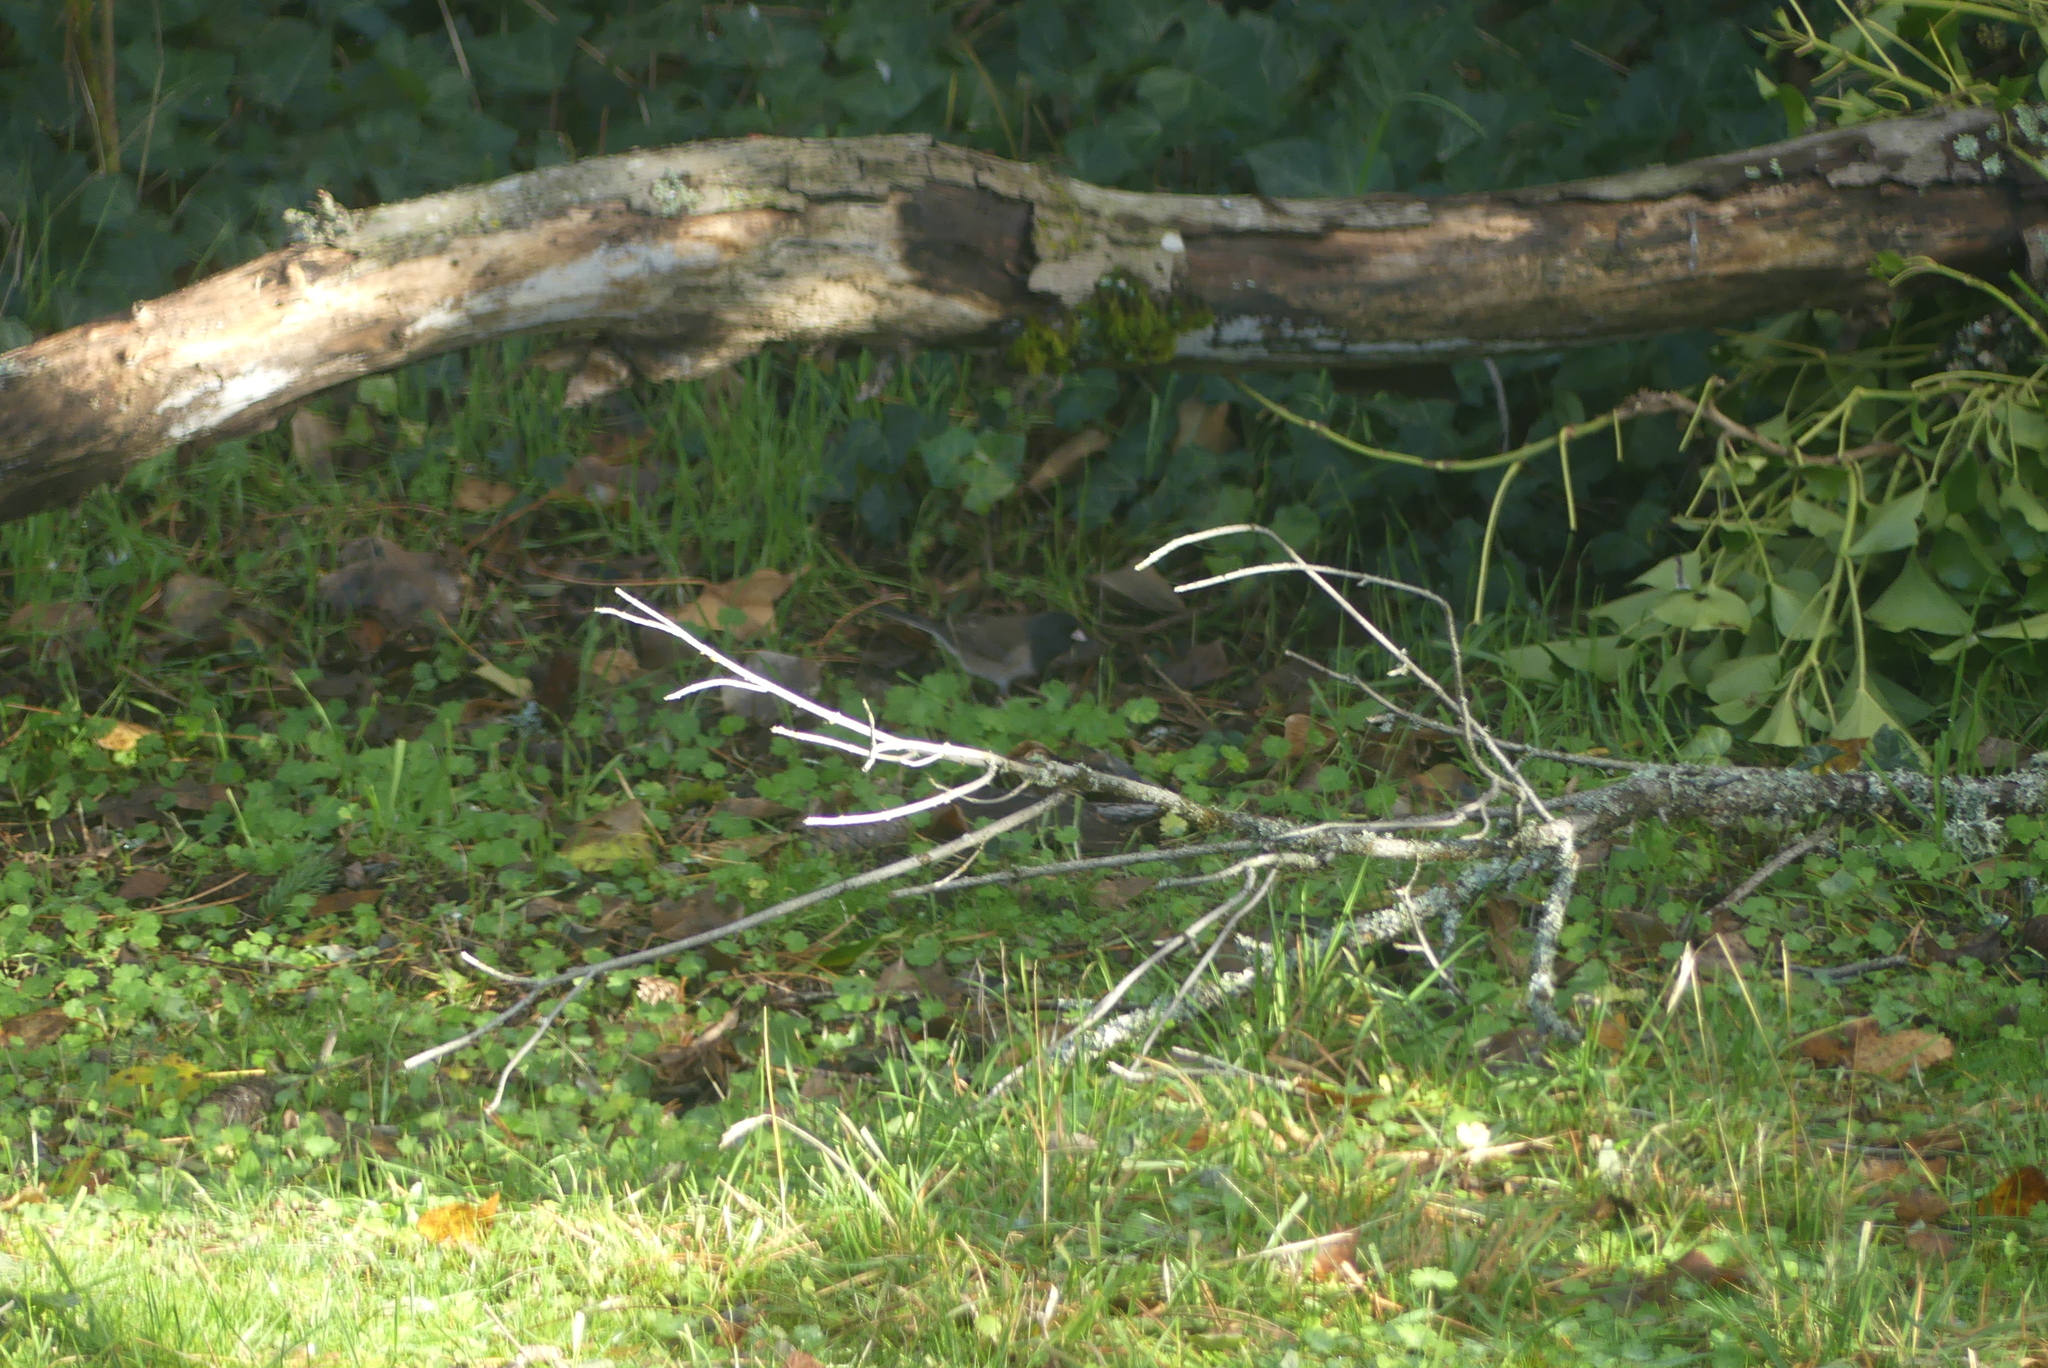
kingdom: Animalia
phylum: Chordata
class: Aves
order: Passeriformes
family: Passerellidae
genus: Junco
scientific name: Junco hyemalis
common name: Dark-eyed junco
